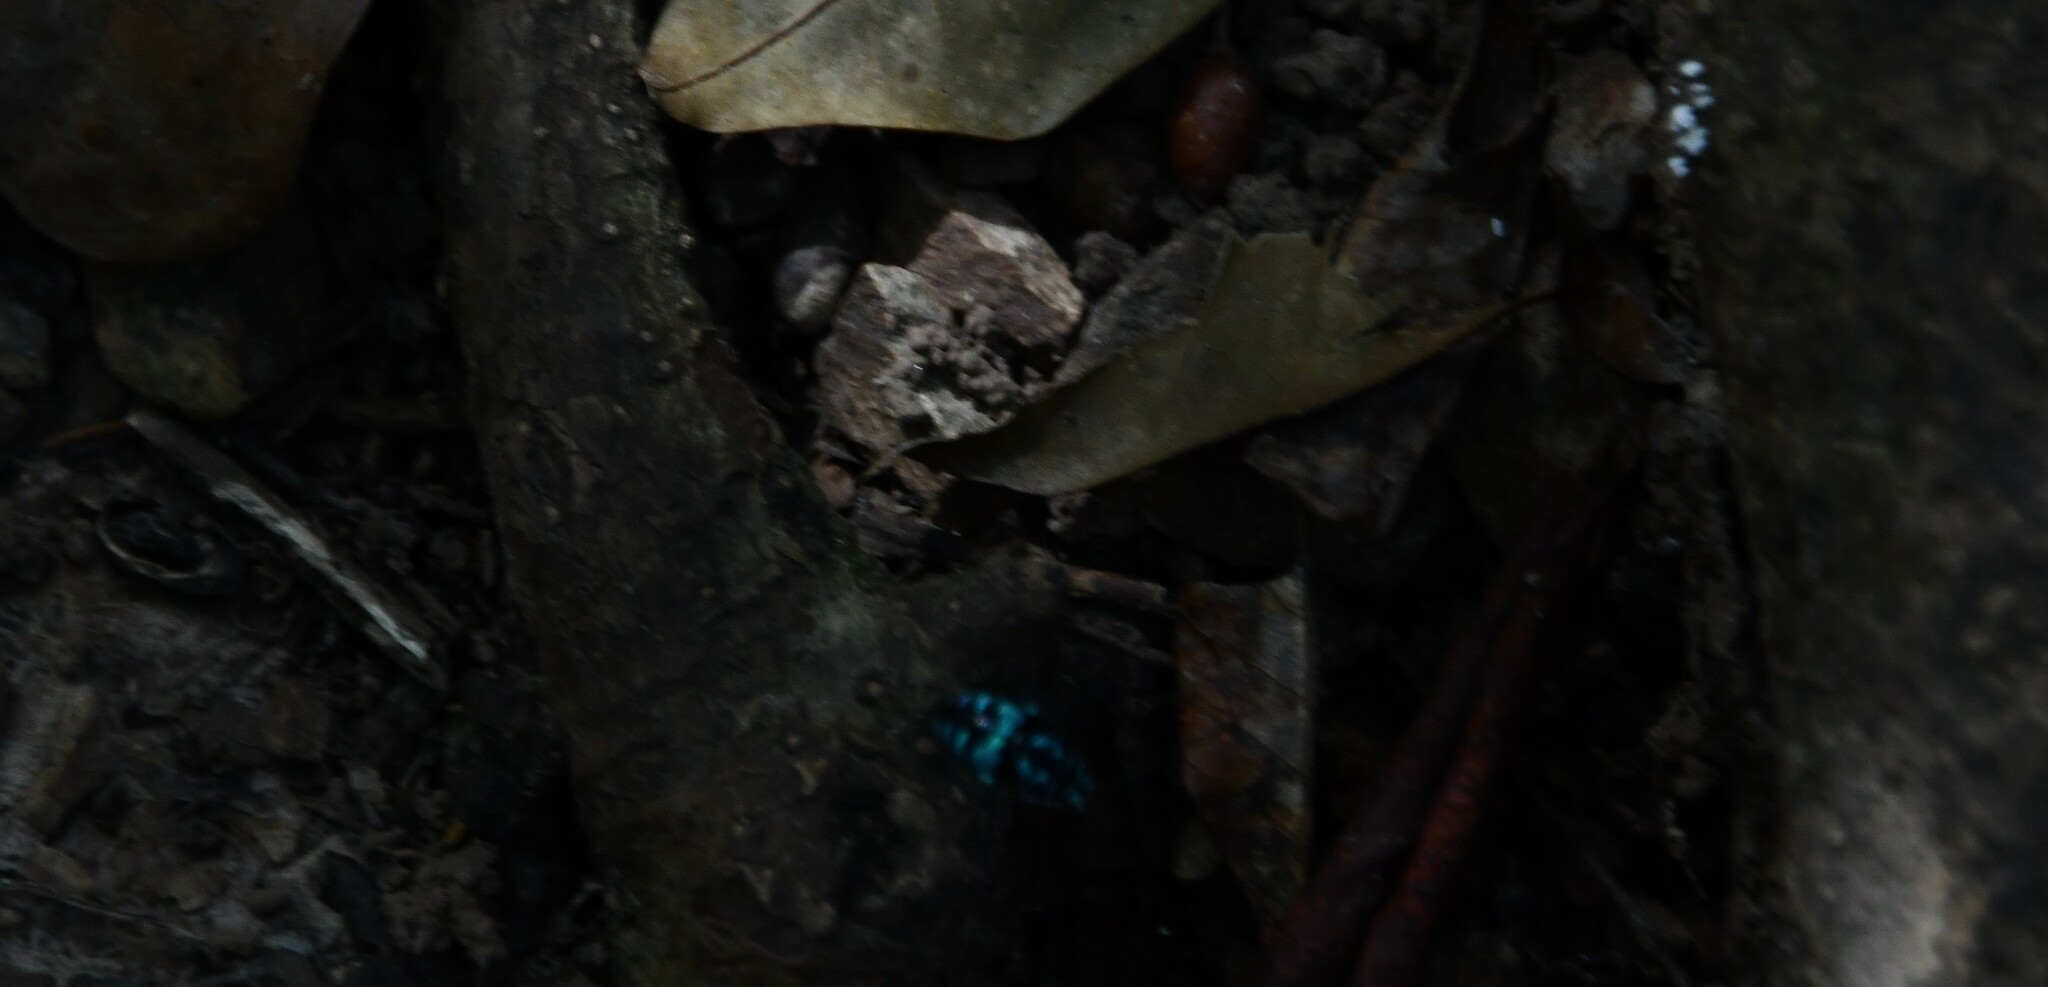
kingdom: Animalia
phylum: Arthropoda
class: Insecta
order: Hymenoptera
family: Apidae
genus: Thyreus
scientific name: Thyreus nitidulus
